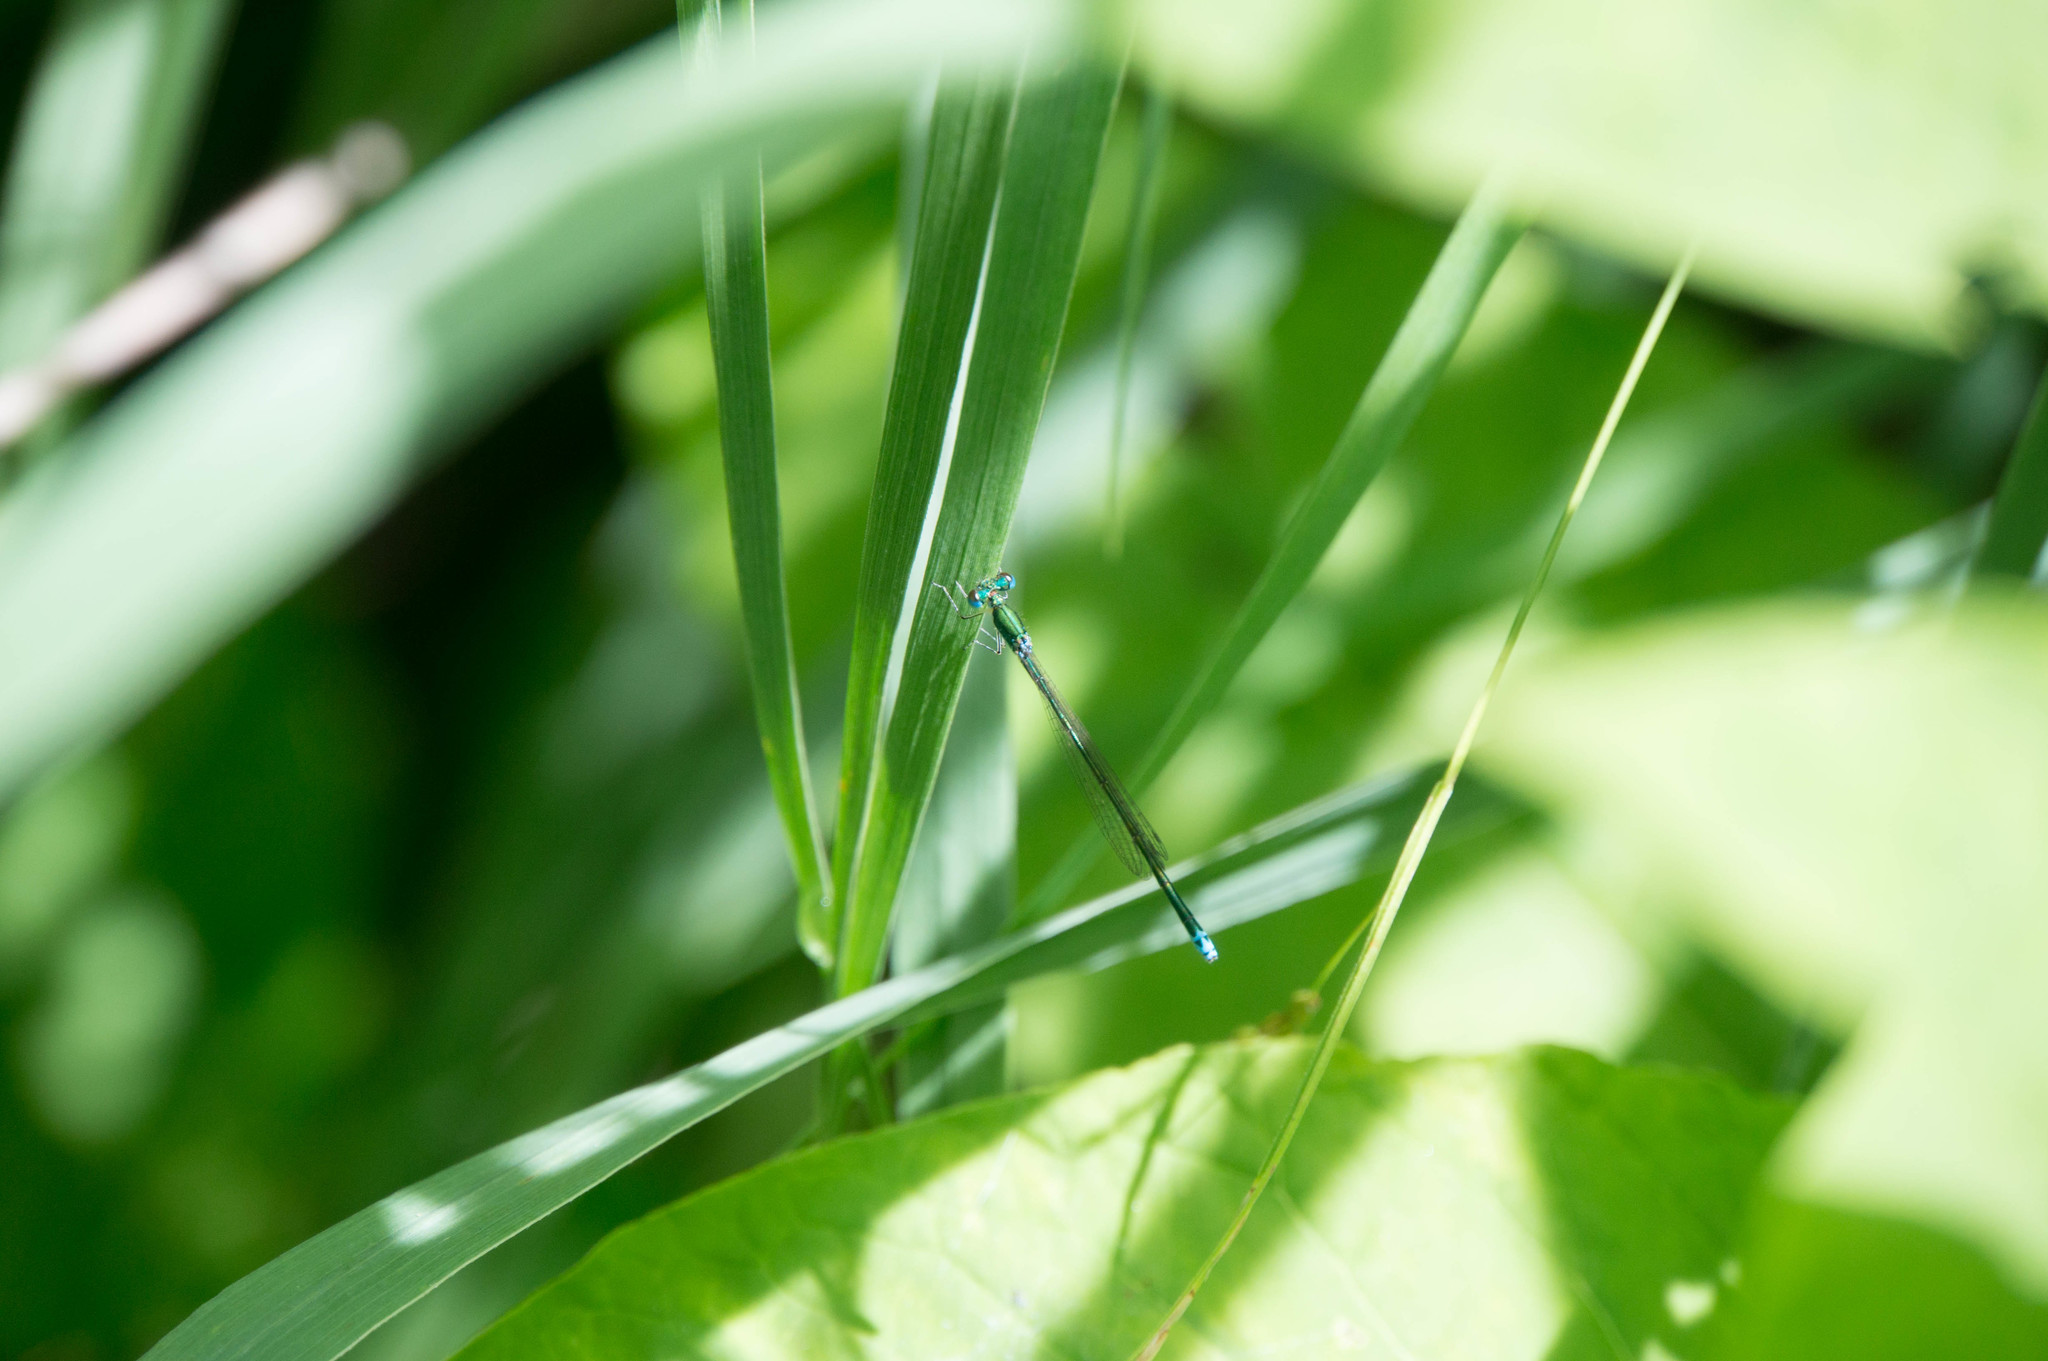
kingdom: Animalia
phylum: Arthropoda
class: Insecta
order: Odonata
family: Coenagrionidae
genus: Nehalennia
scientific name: Nehalennia irene
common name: Sedge sprite
